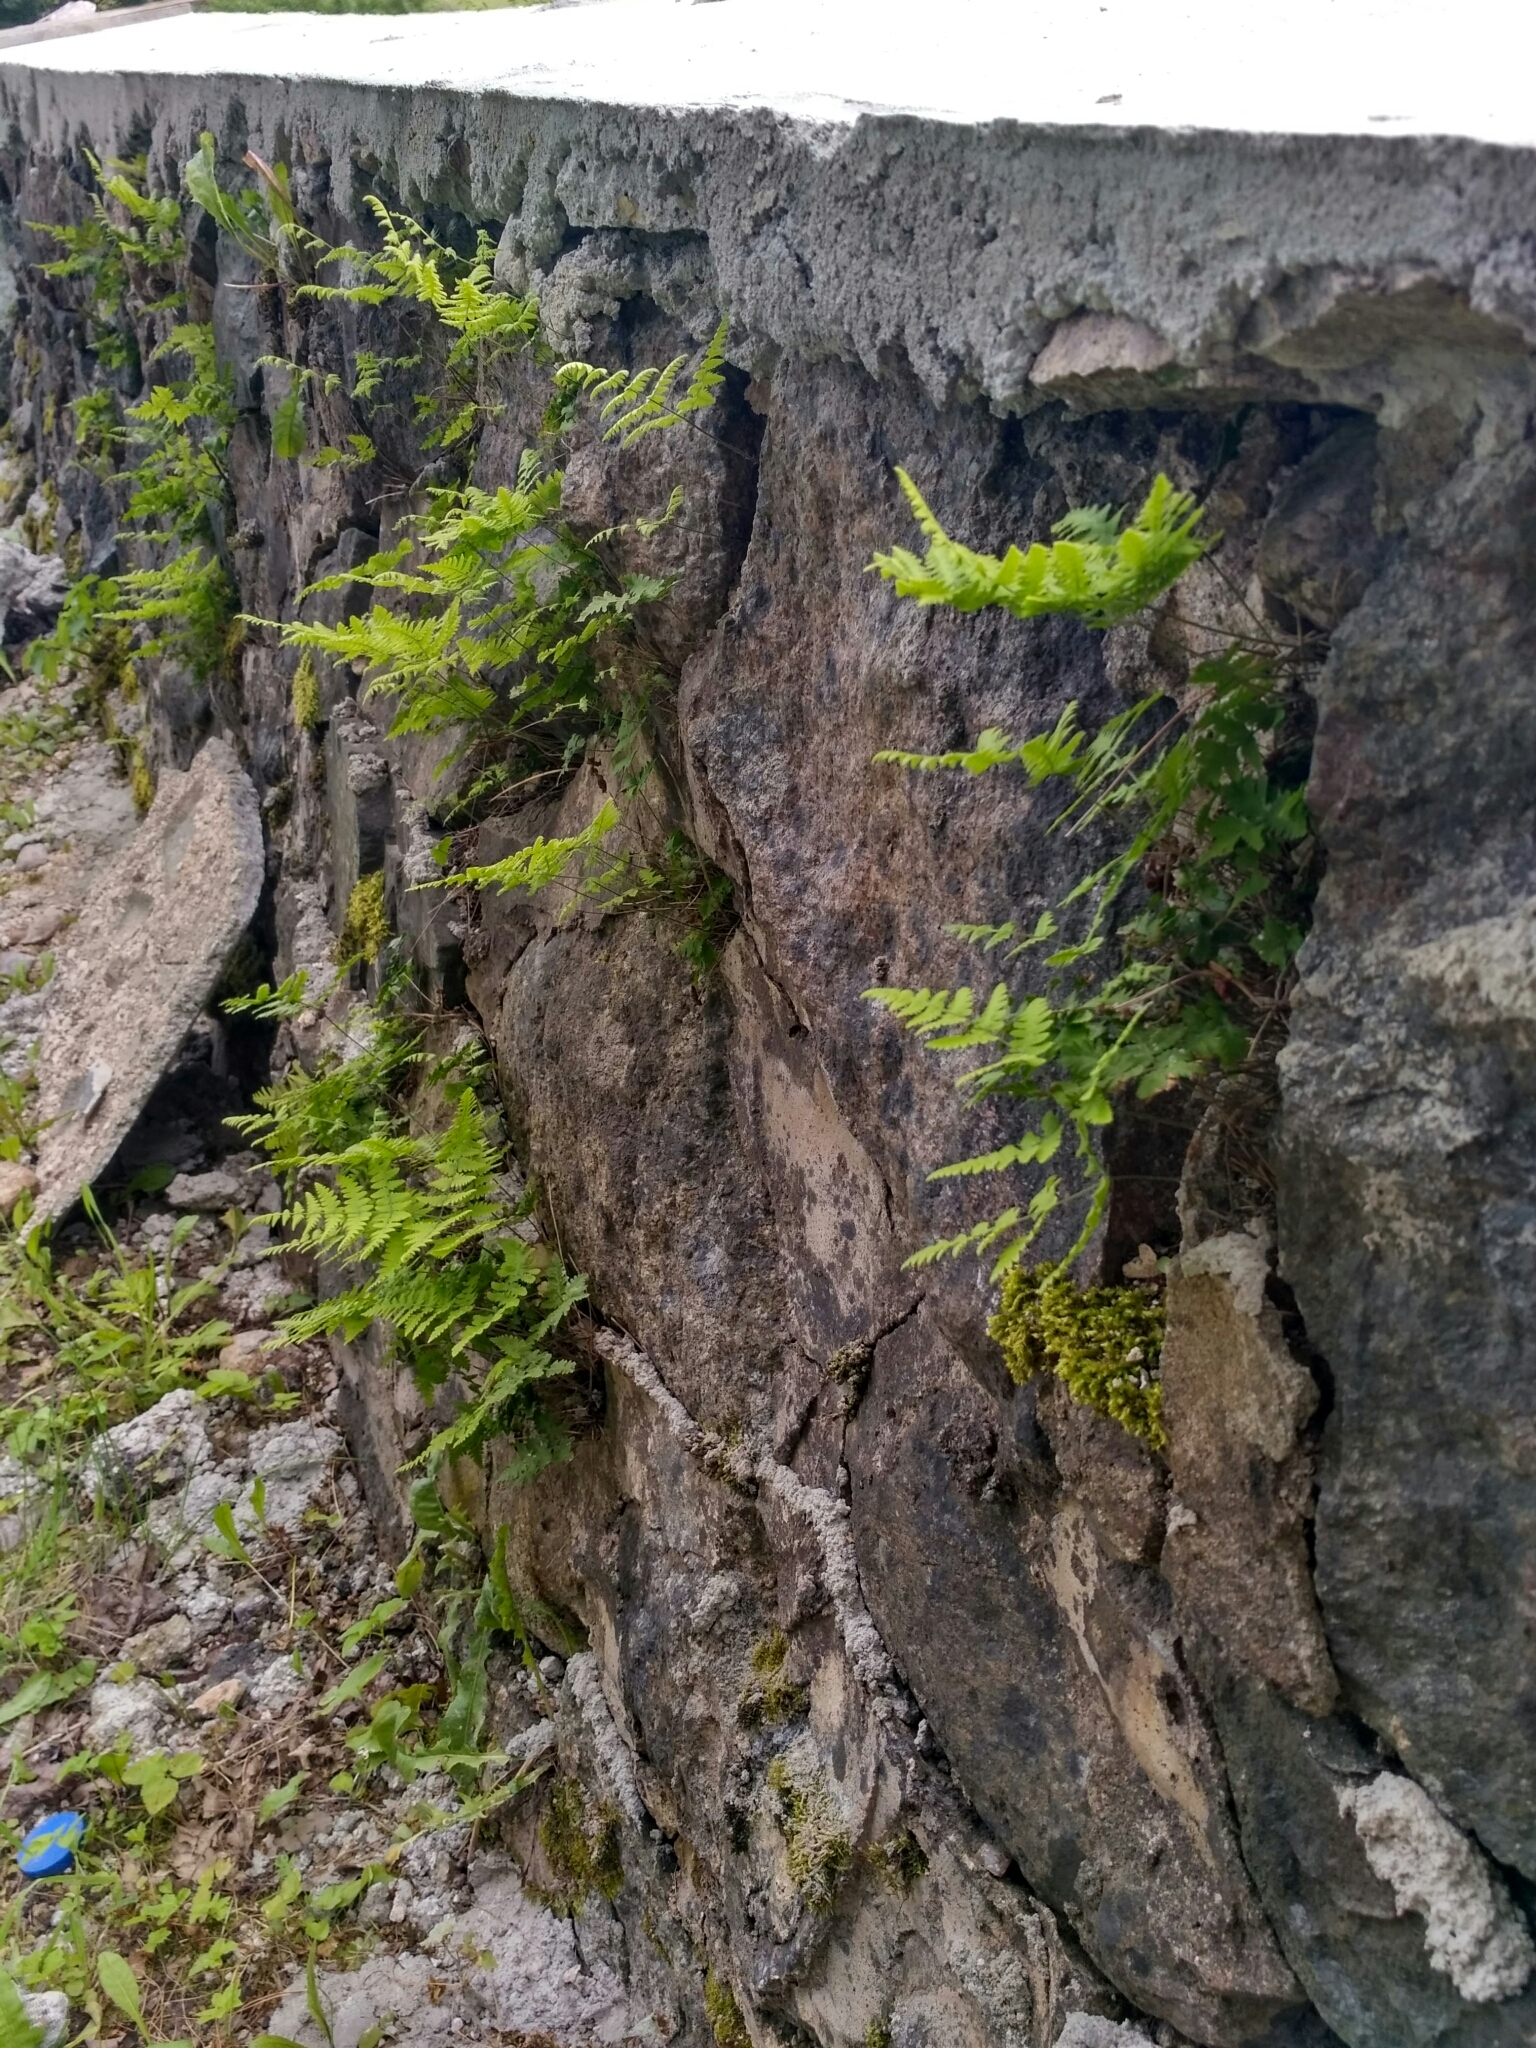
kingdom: Plantae
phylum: Tracheophyta
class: Polypodiopsida
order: Polypodiales
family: Cystopteridaceae
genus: Gymnocarpium
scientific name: Gymnocarpium robertianum
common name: Limestone fern
